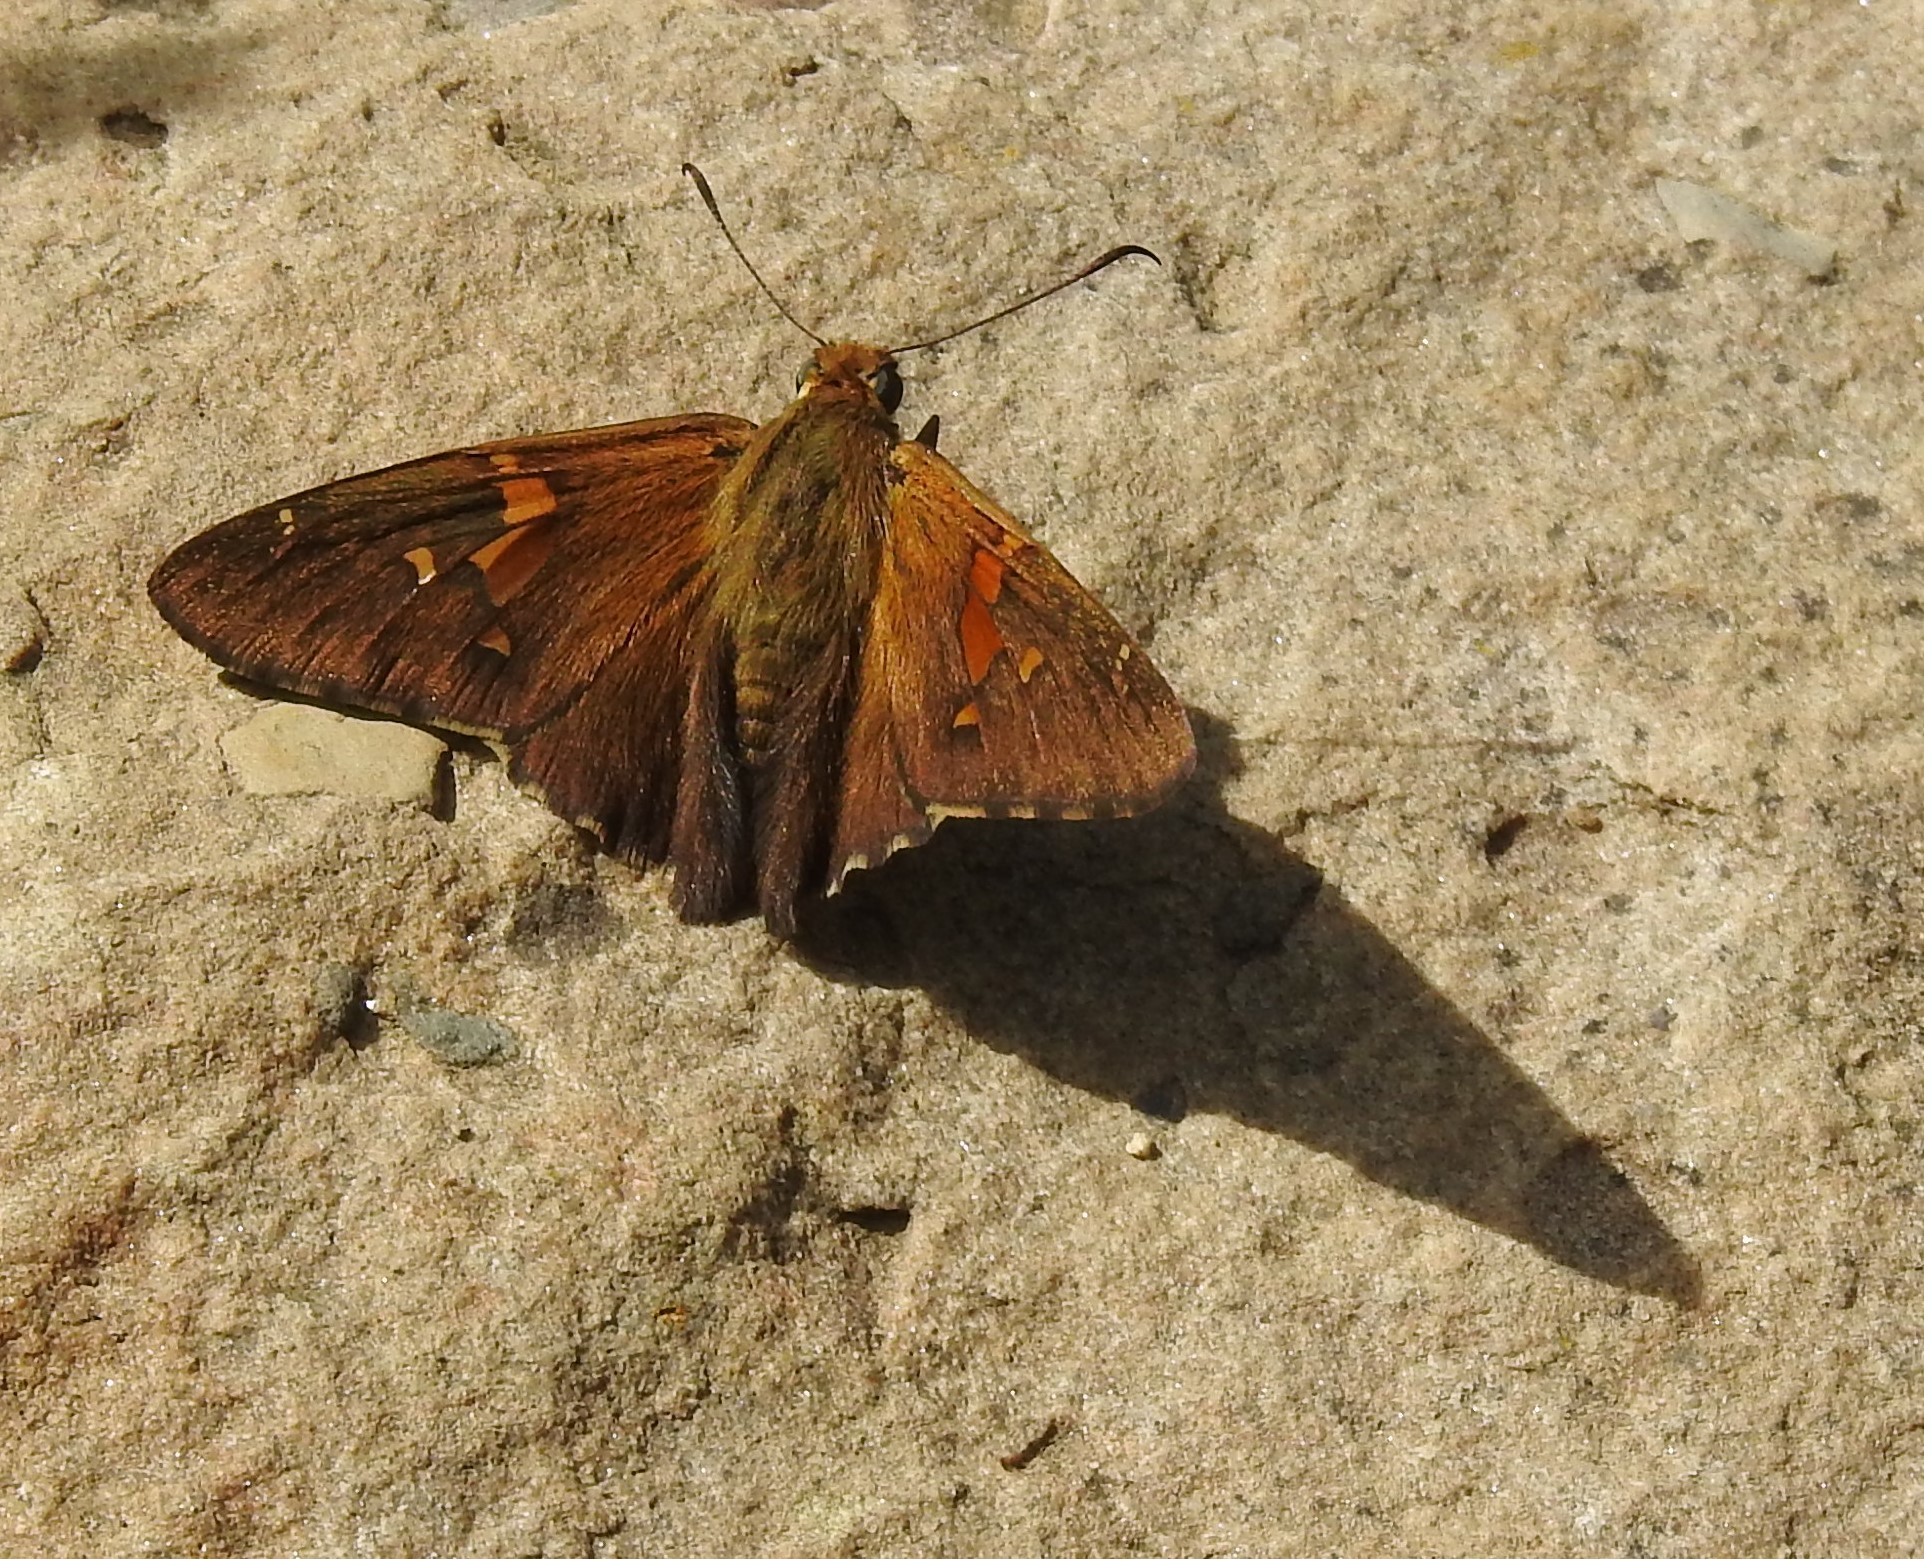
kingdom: Animalia
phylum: Arthropoda
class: Insecta
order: Lepidoptera
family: Hesperiidae
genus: Epargyreus
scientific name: Epargyreus clarus
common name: Silver-spotted skipper
